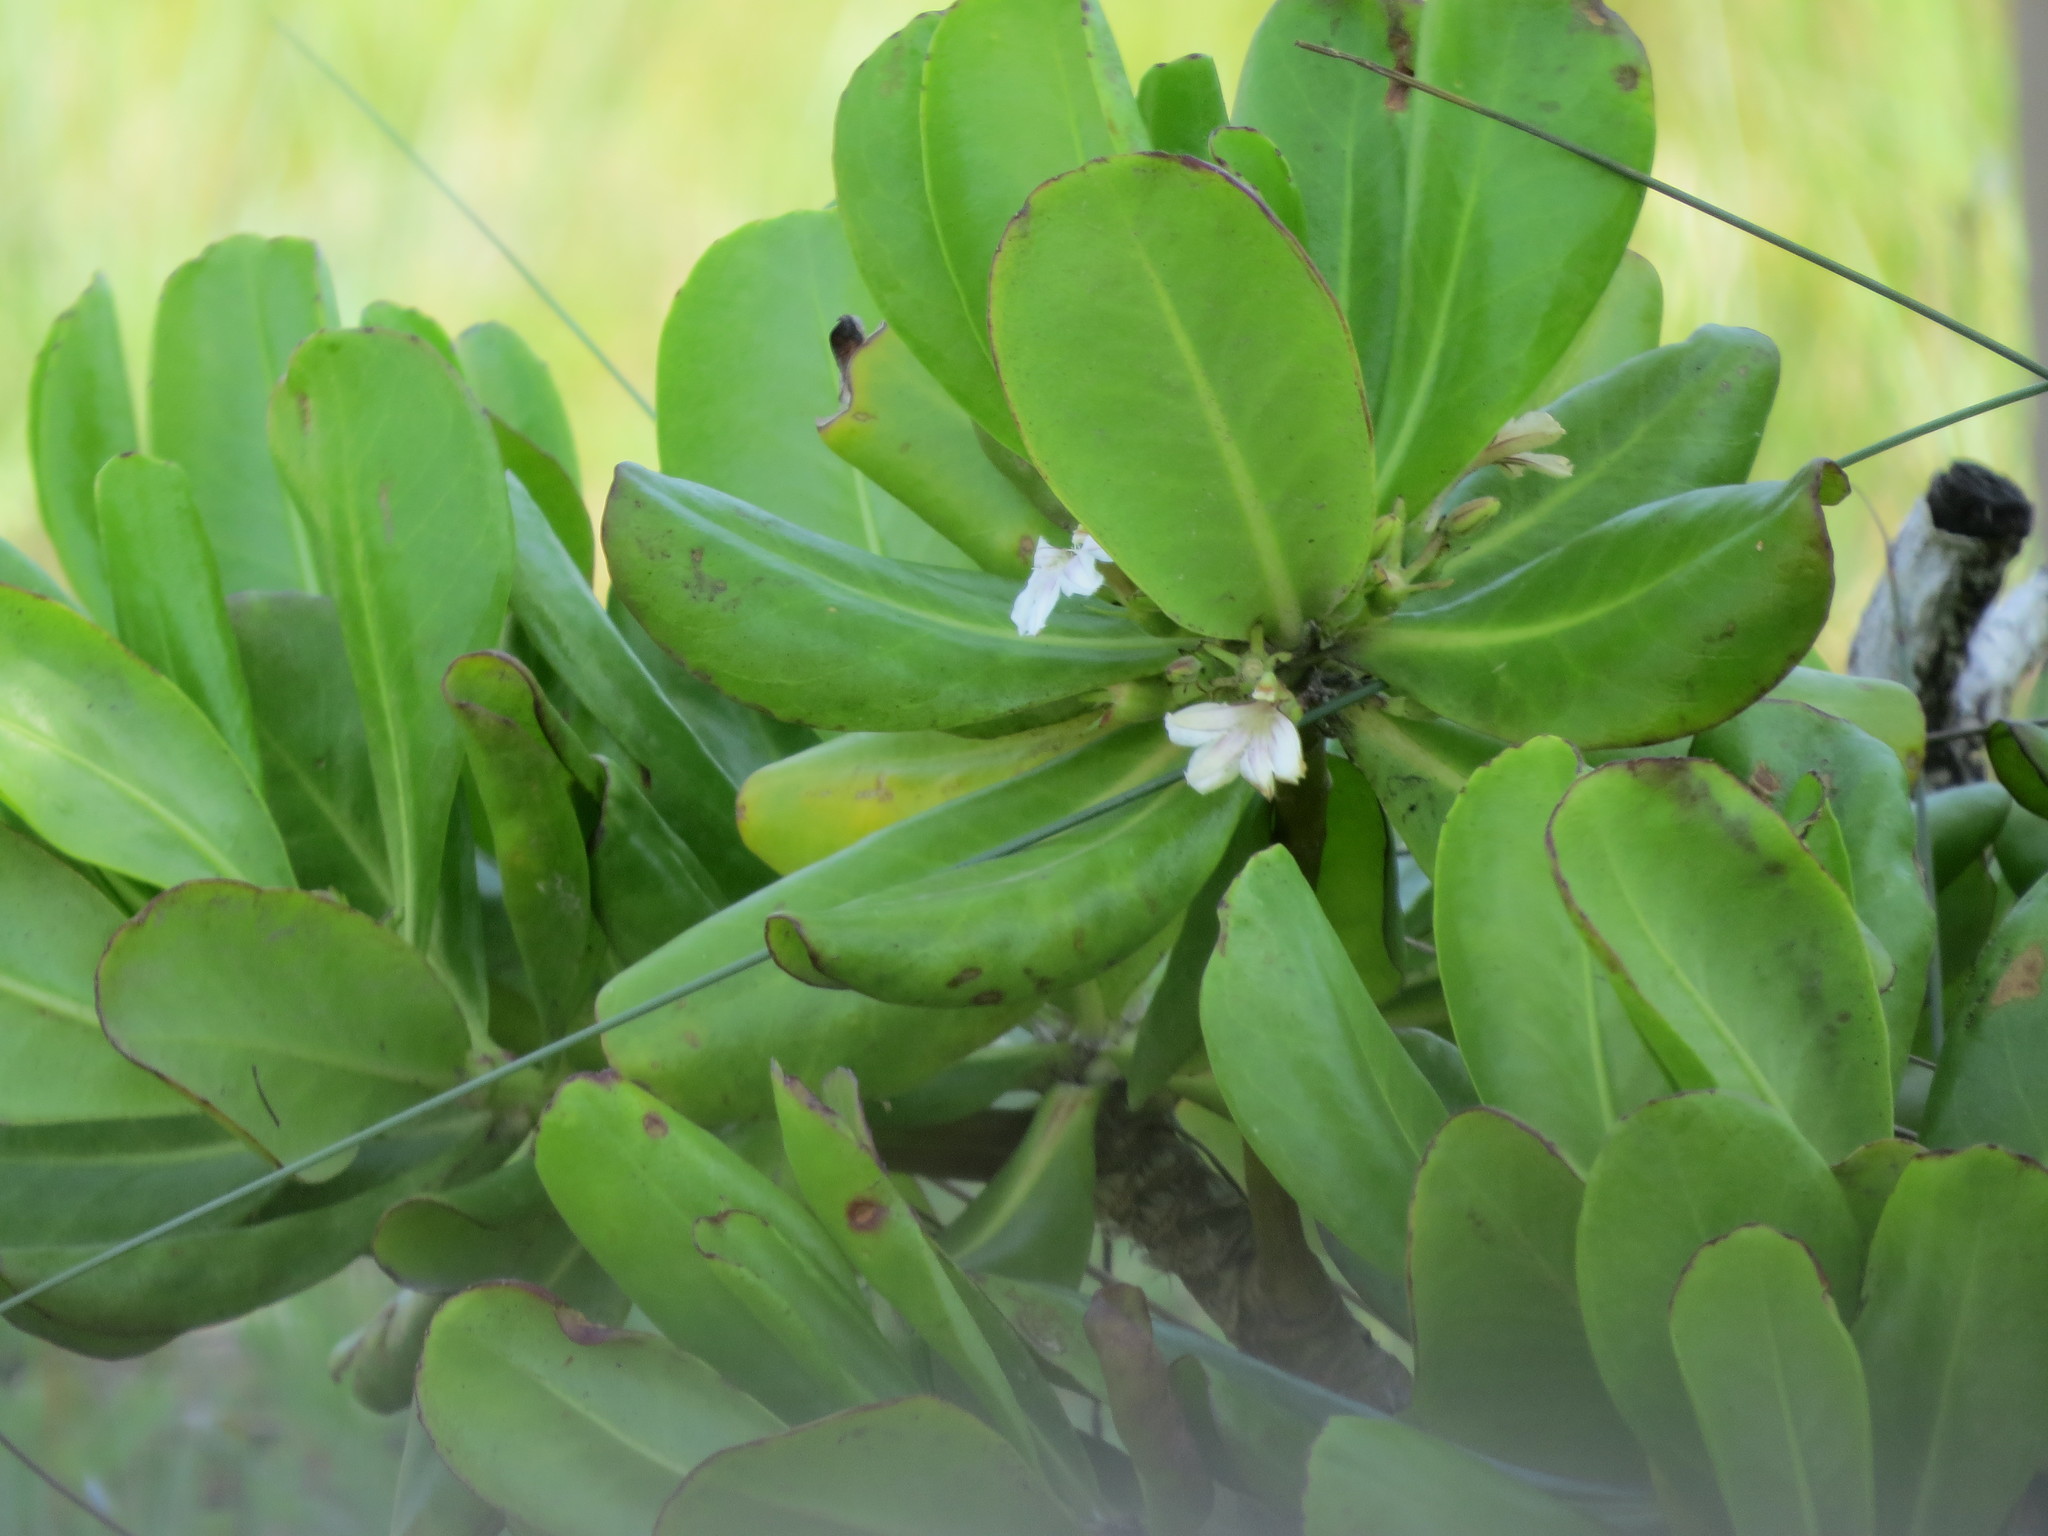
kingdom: Plantae
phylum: Tracheophyta
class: Magnoliopsida
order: Asterales
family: Goodeniaceae
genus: Scaevola
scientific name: Scaevola taccada
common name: Sea lettucetree
